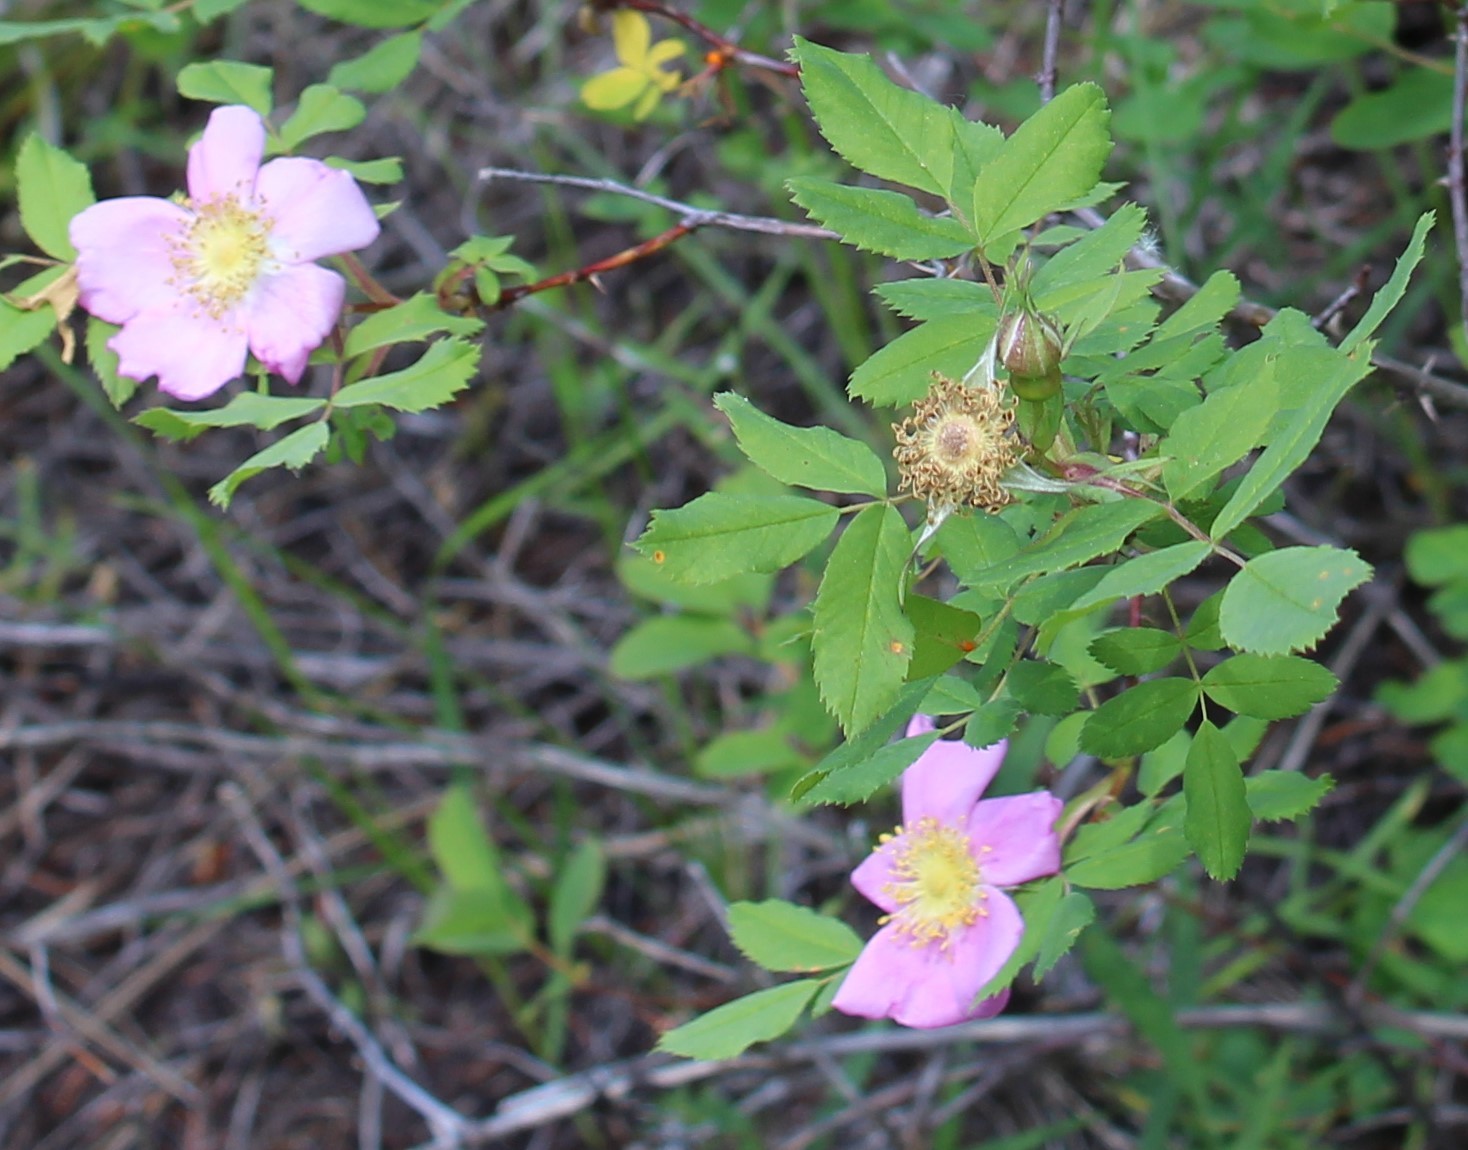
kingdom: Plantae
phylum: Tracheophyta
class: Magnoliopsida
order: Rosales
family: Rosaceae
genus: Rosa
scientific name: Rosa nutkana
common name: Nootka rose
